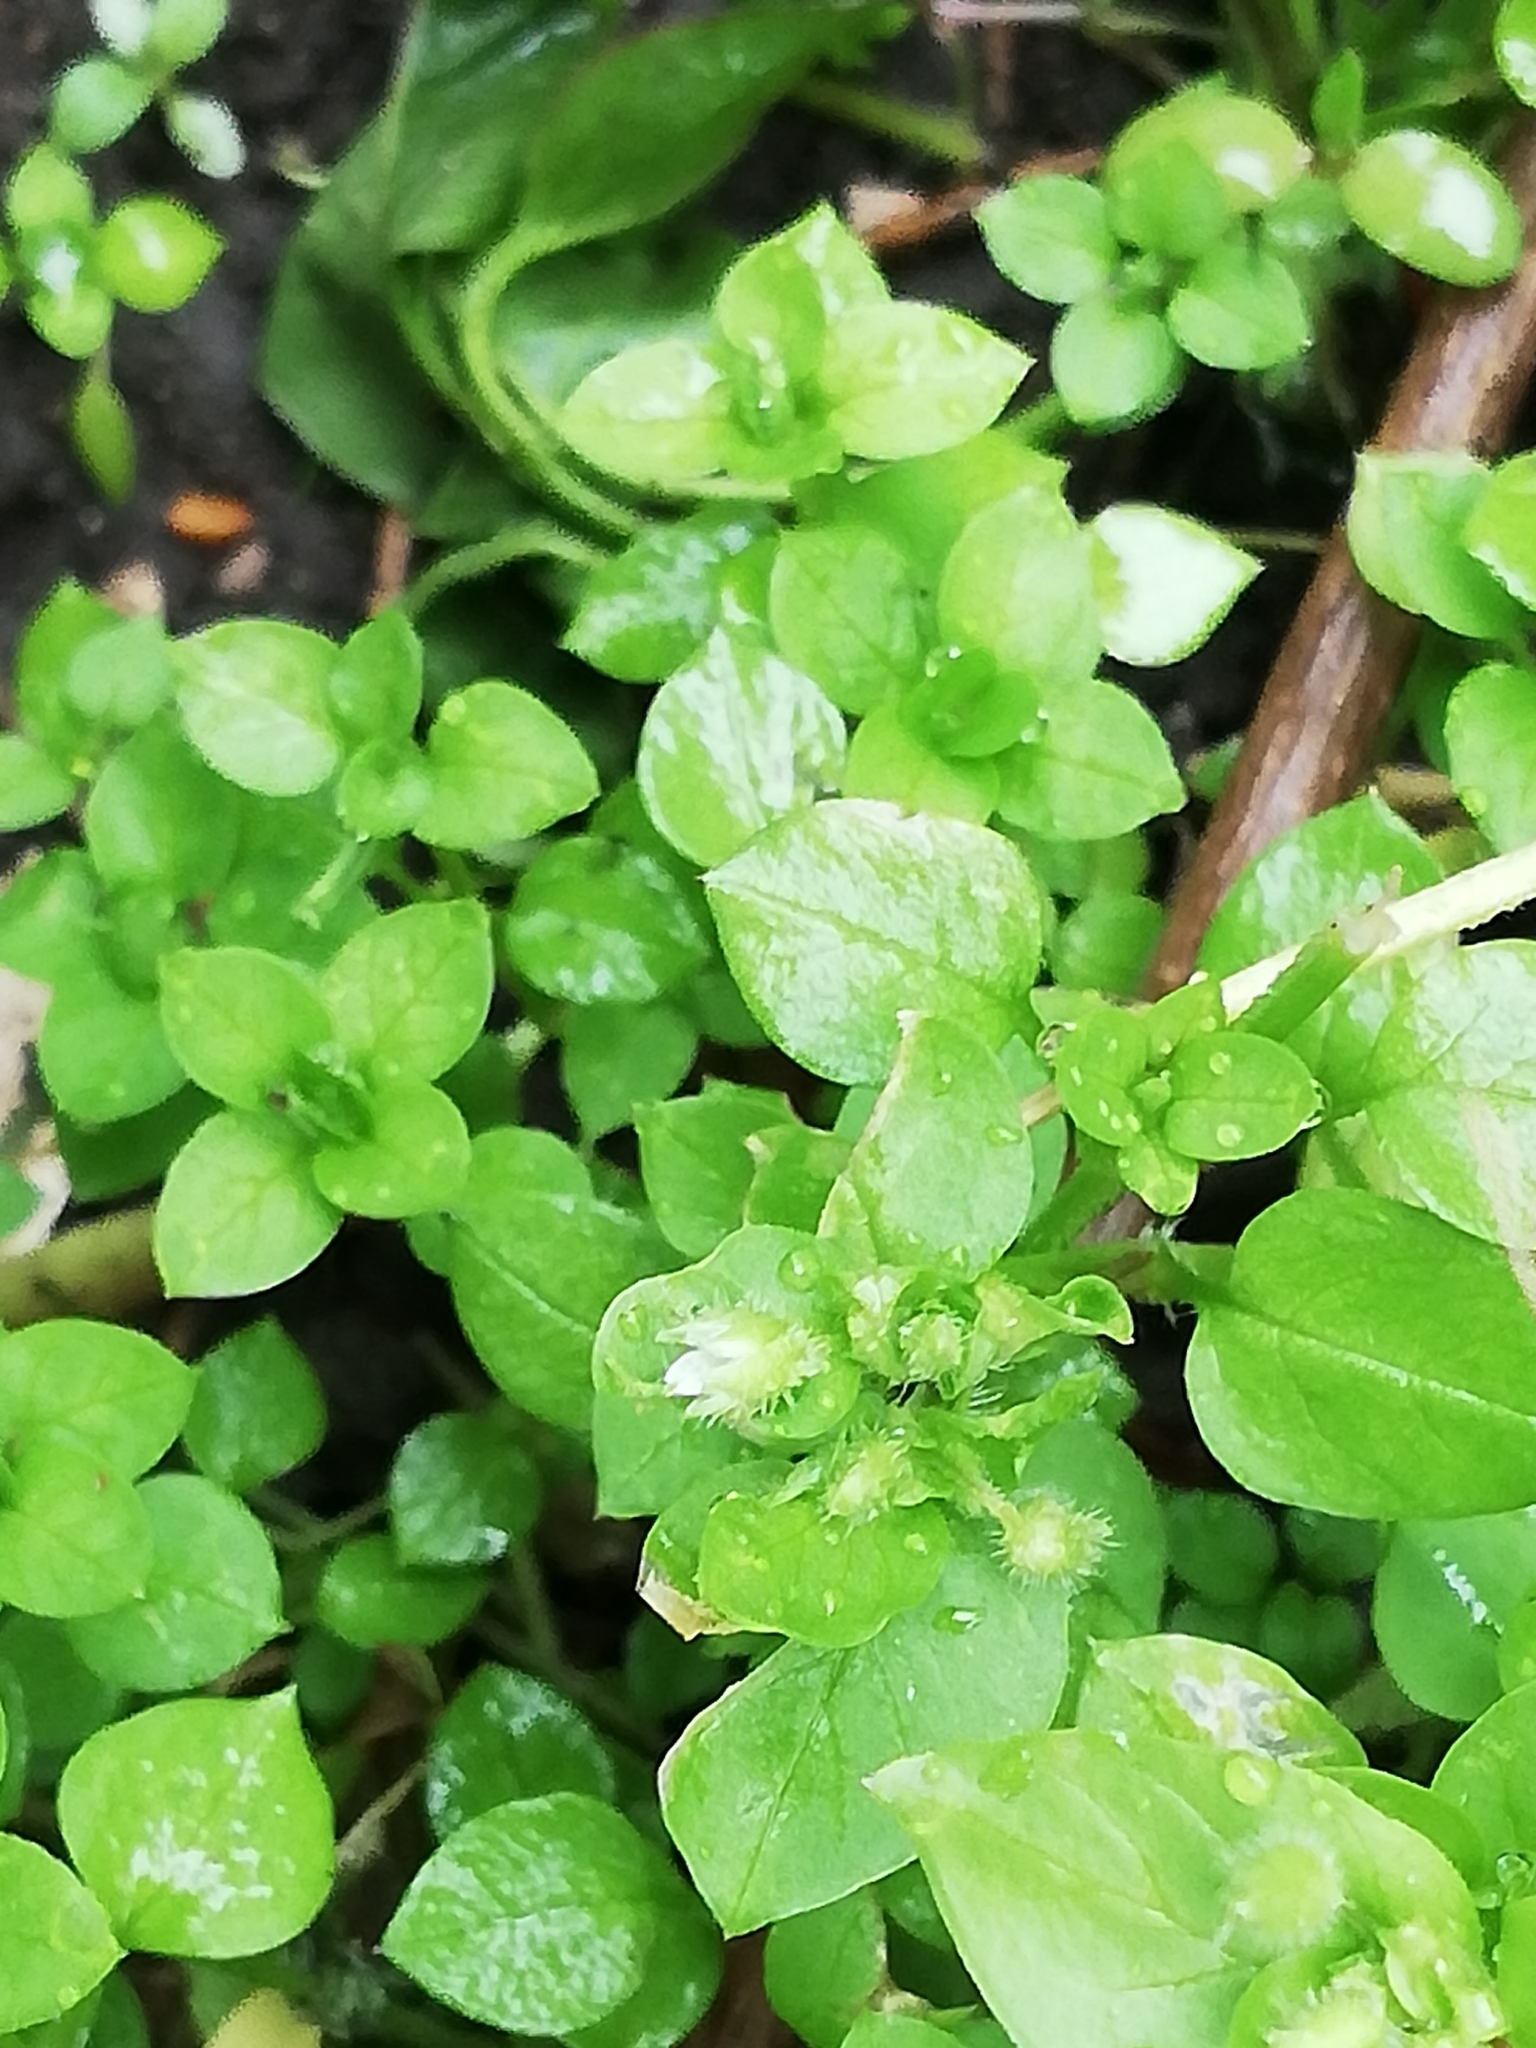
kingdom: Plantae
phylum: Tracheophyta
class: Magnoliopsida
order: Caryophyllales
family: Caryophyllaceae
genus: Stellaria
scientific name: Stellaria media
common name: Common chickweed
